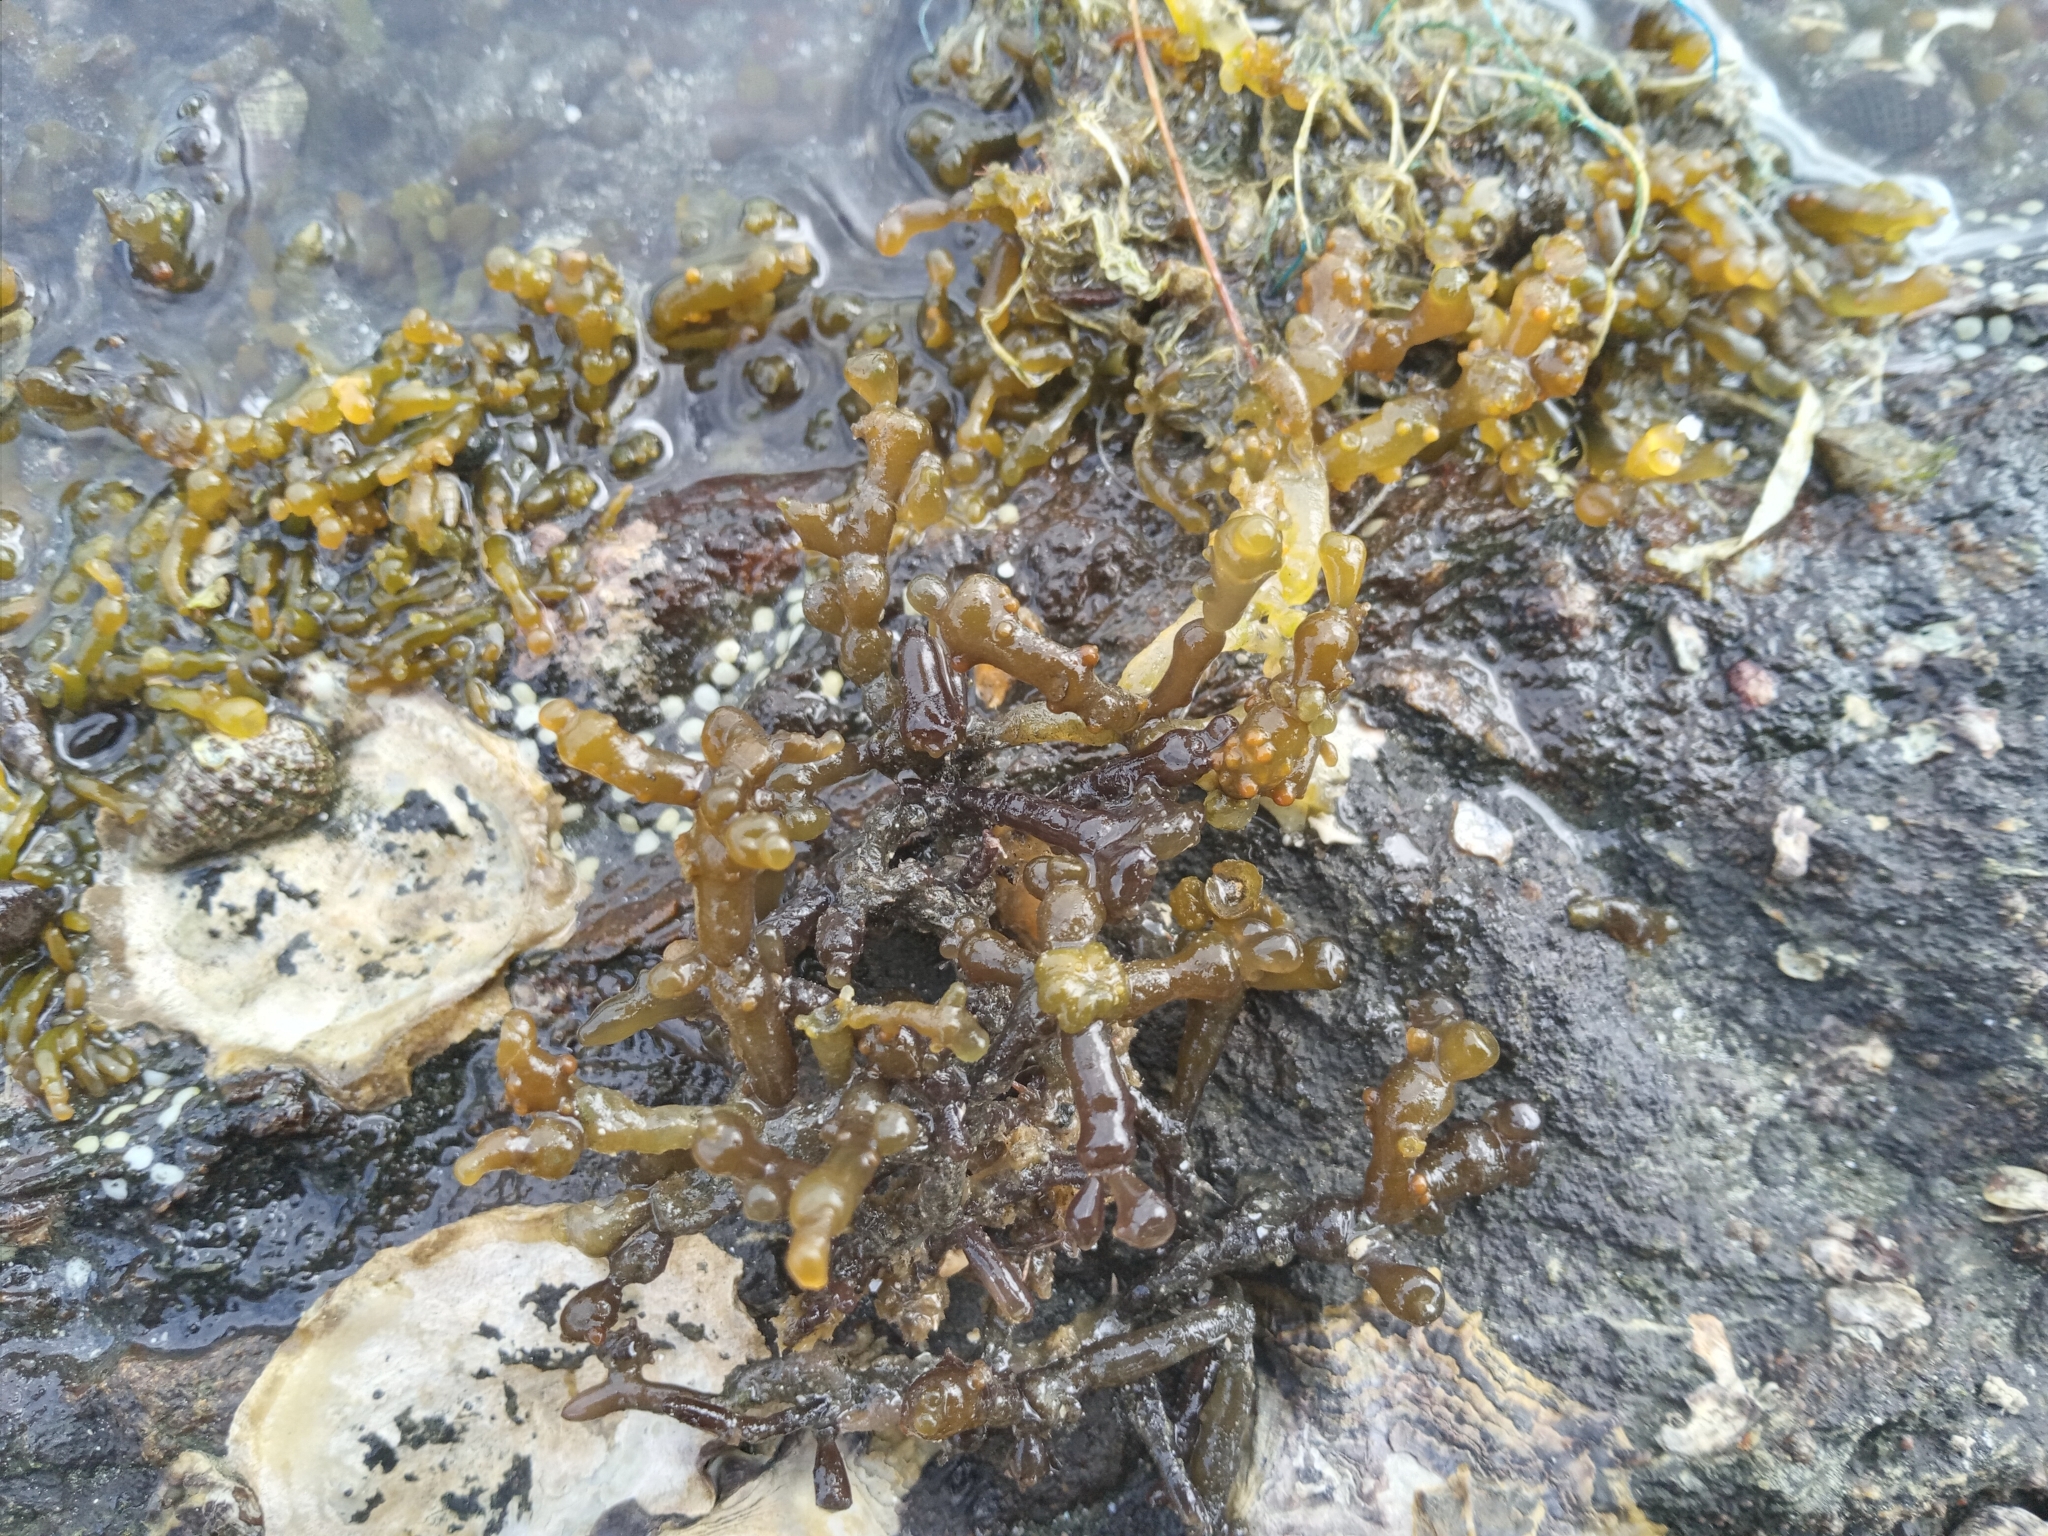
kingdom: Plantae
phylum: Rhodophyta
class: Florideophyceae
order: Gracilariales
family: Gracilariaceae
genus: Gracilaria
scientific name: Gracilaria salicornia
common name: Red algae
